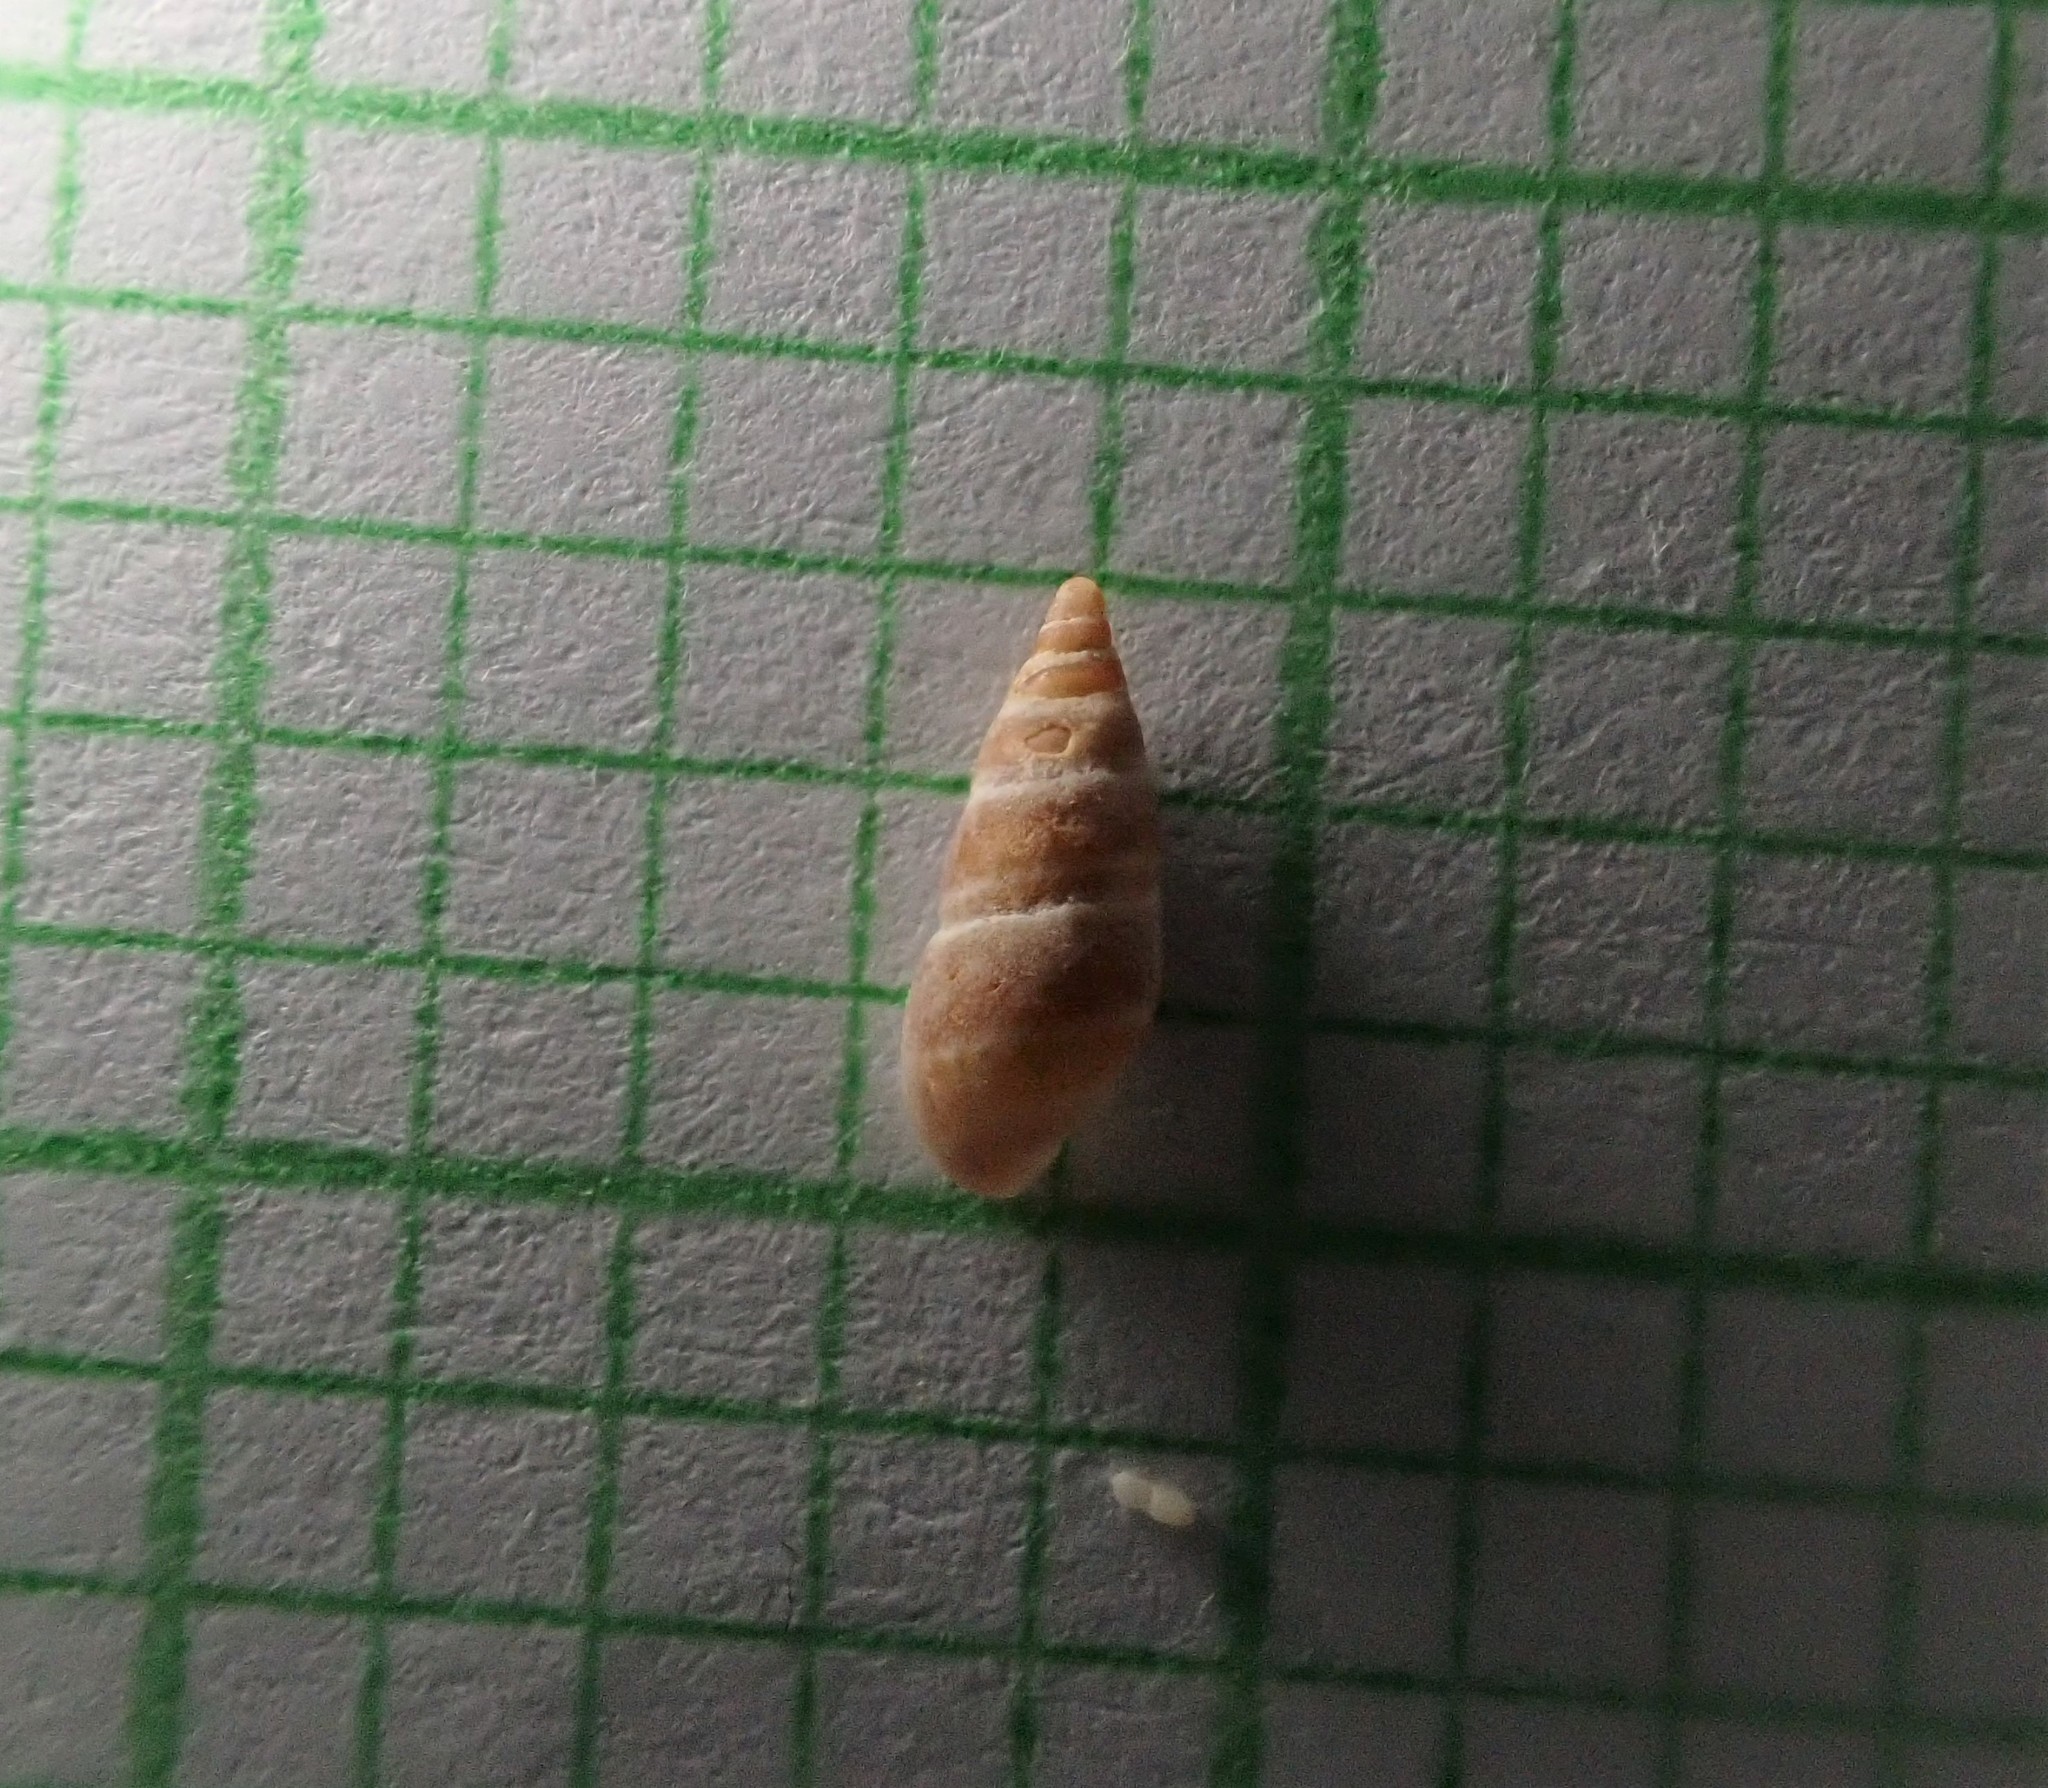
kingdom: Animalia
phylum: Mollusca
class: Gastropoda
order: Littorinimorpha
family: Rissoinidae
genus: Rissoina
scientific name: Rissoina chathamensis
